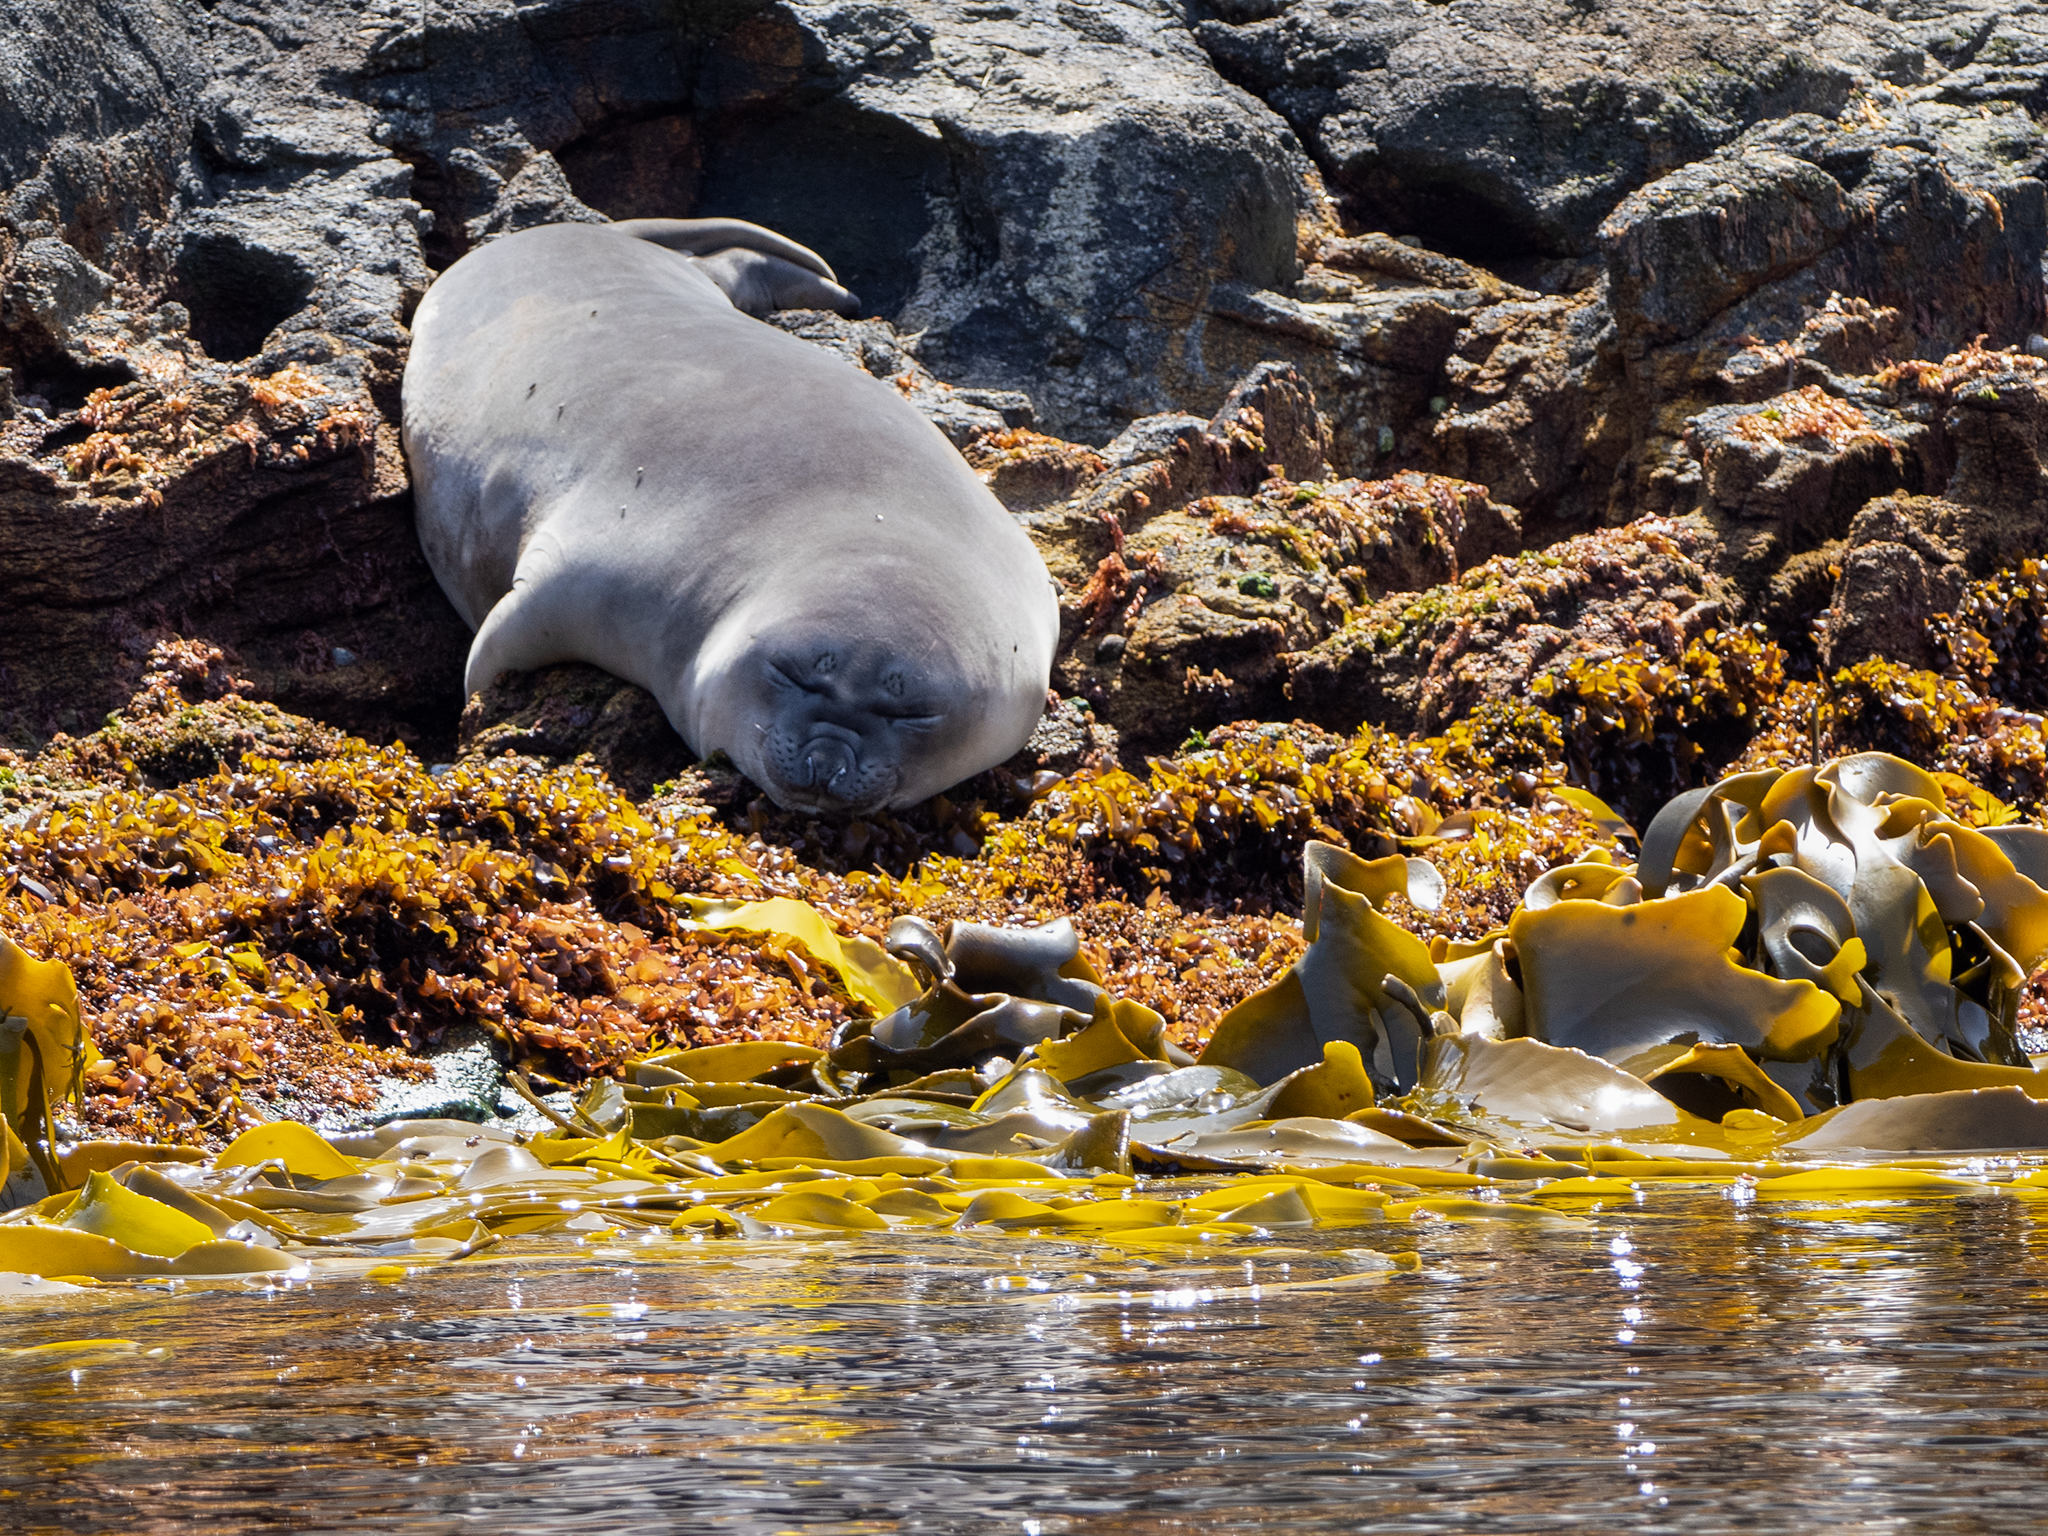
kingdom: Animalia
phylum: Chordata
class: Mammalia
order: Carnivora
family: Phocidae
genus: Mirounga
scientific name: Mirounga leonina
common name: Southern elephant seal
